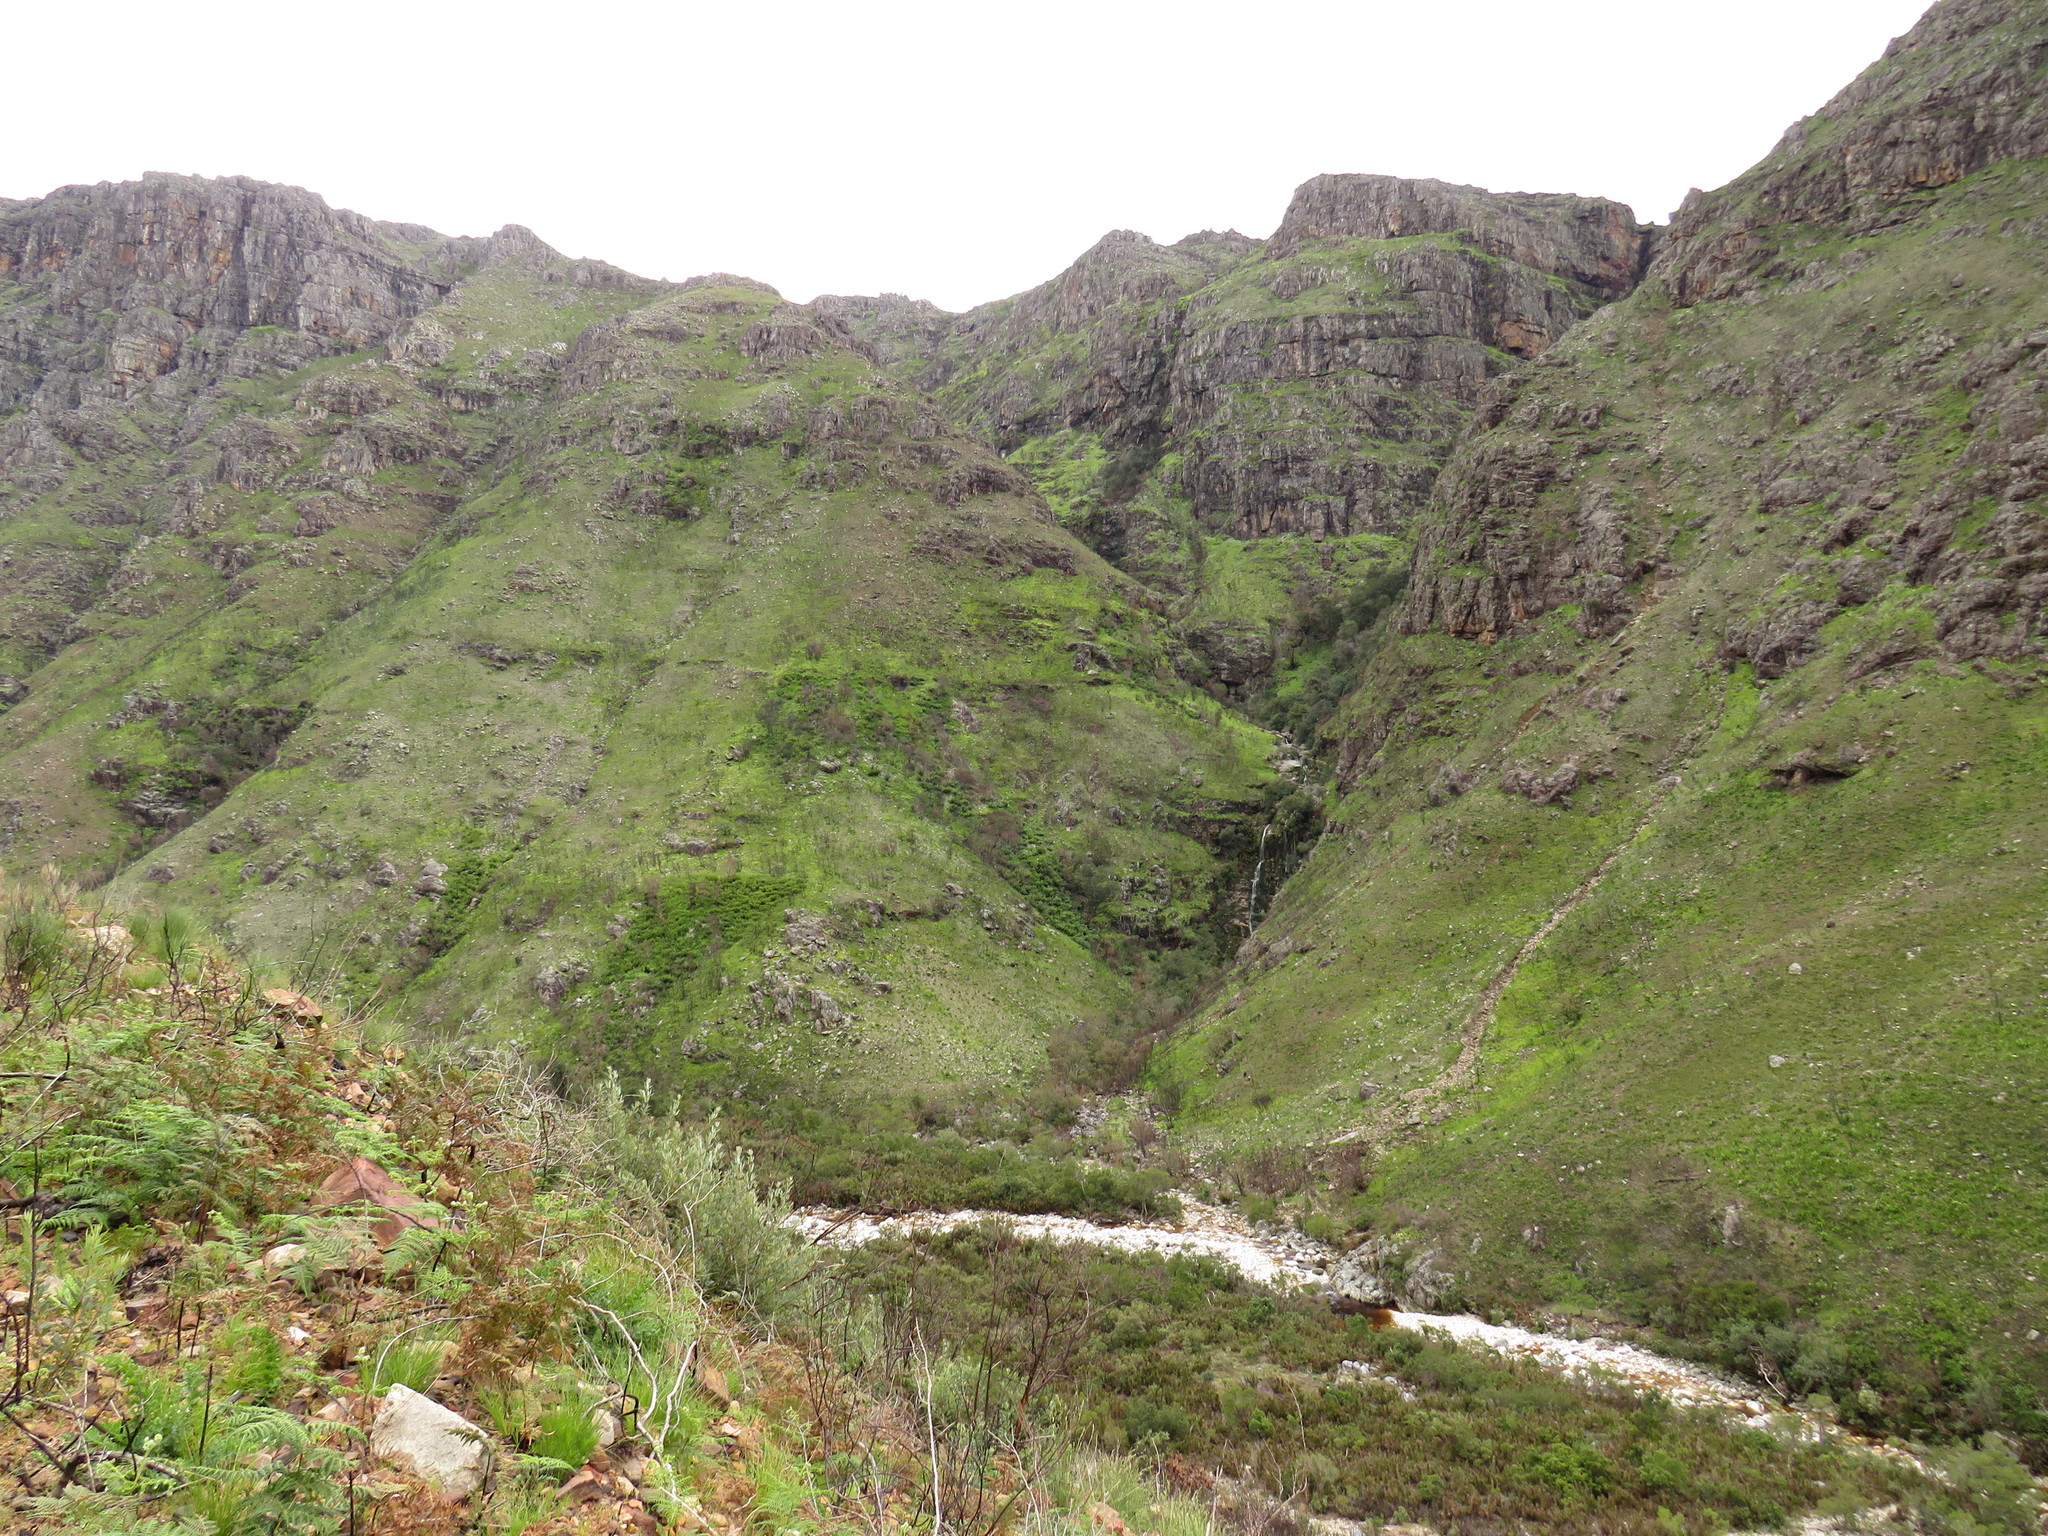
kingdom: Plantae
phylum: Tracheophyta
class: Polypodiopsida
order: Osmundales
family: Osmundaceae
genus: Todea
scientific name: Todea barbara
